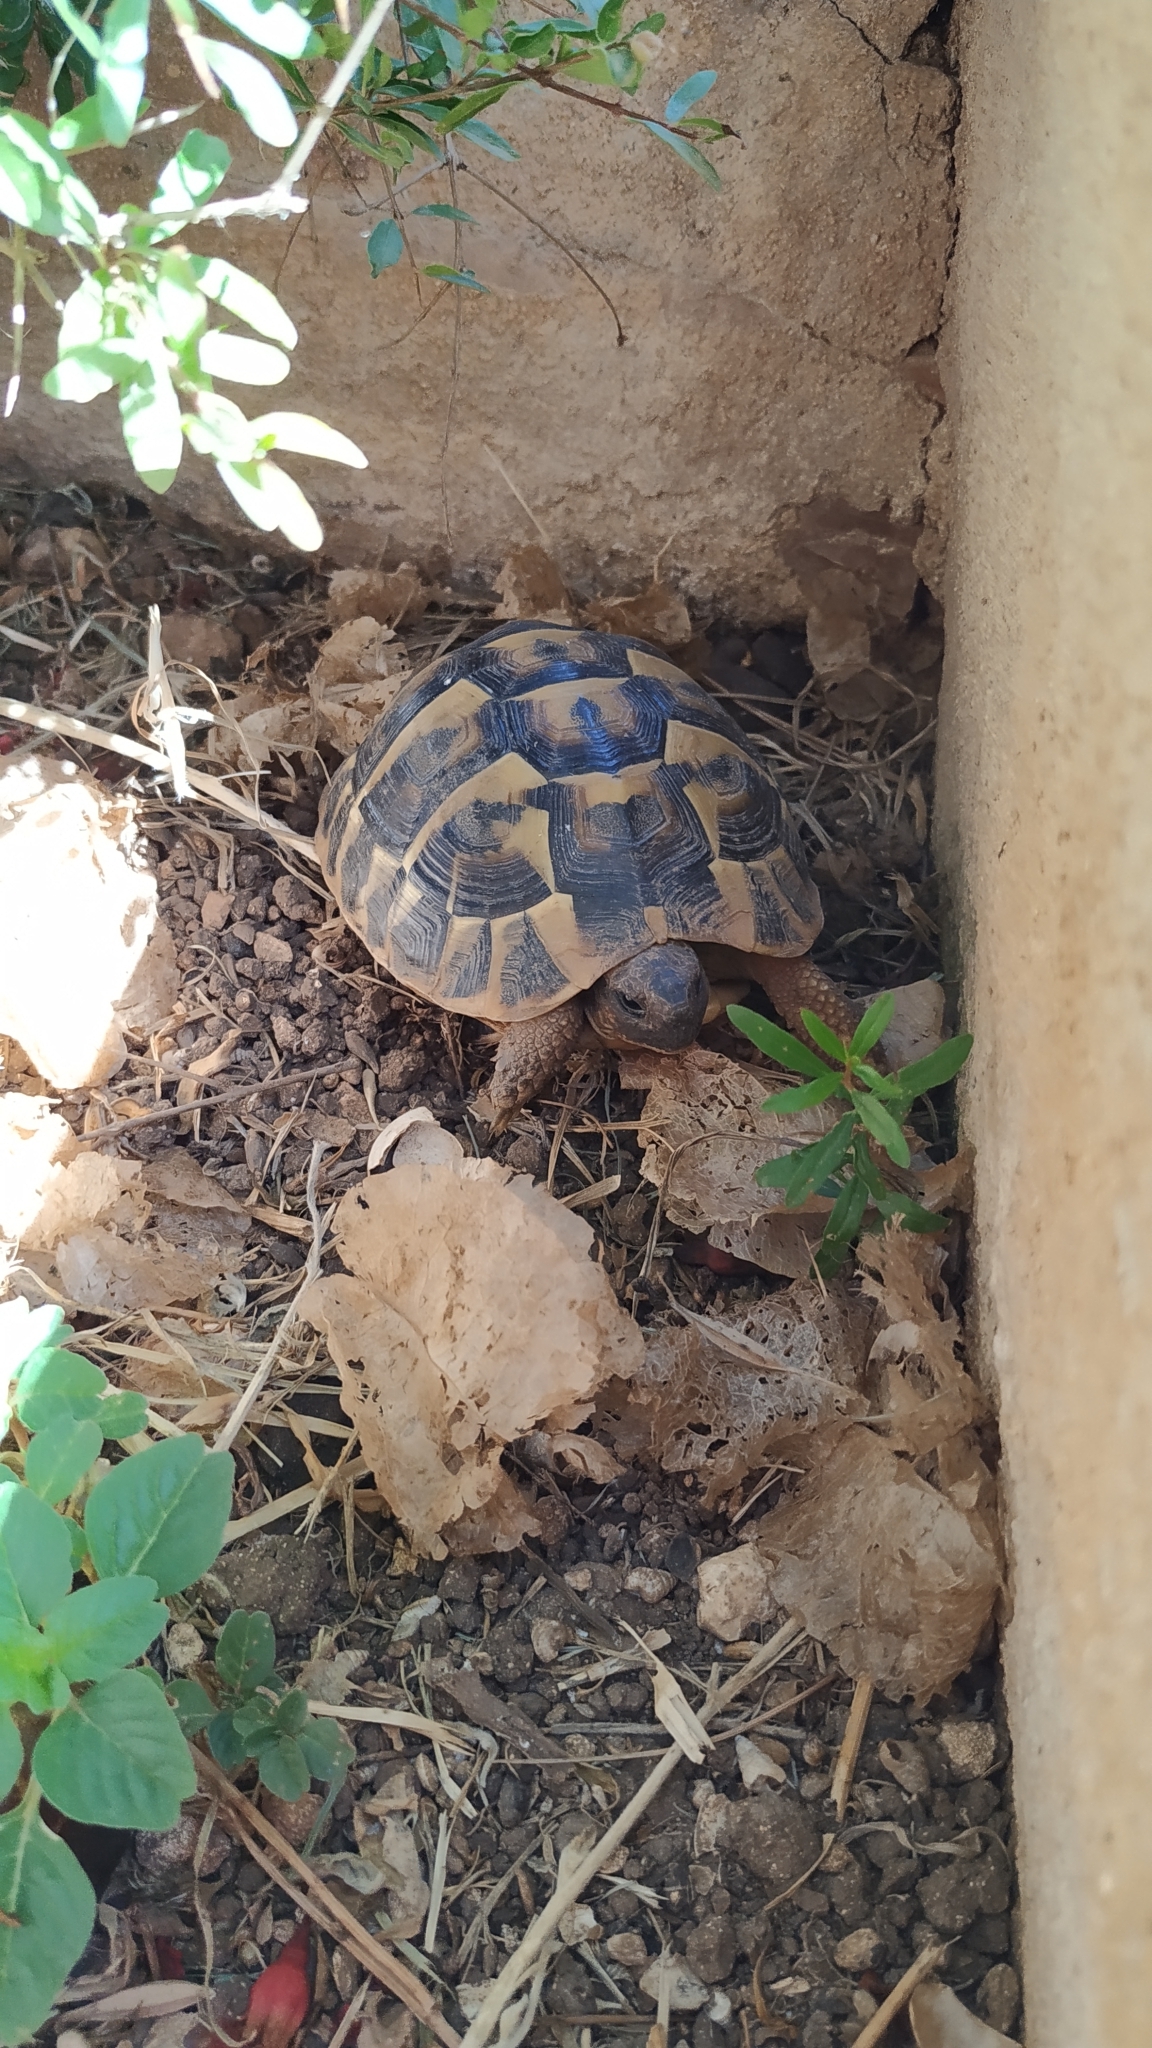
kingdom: Animalia
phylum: Chordata
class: Testudines
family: Testudinidae
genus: Testudo
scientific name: Testudo hermanni
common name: Hermann's tortoise
